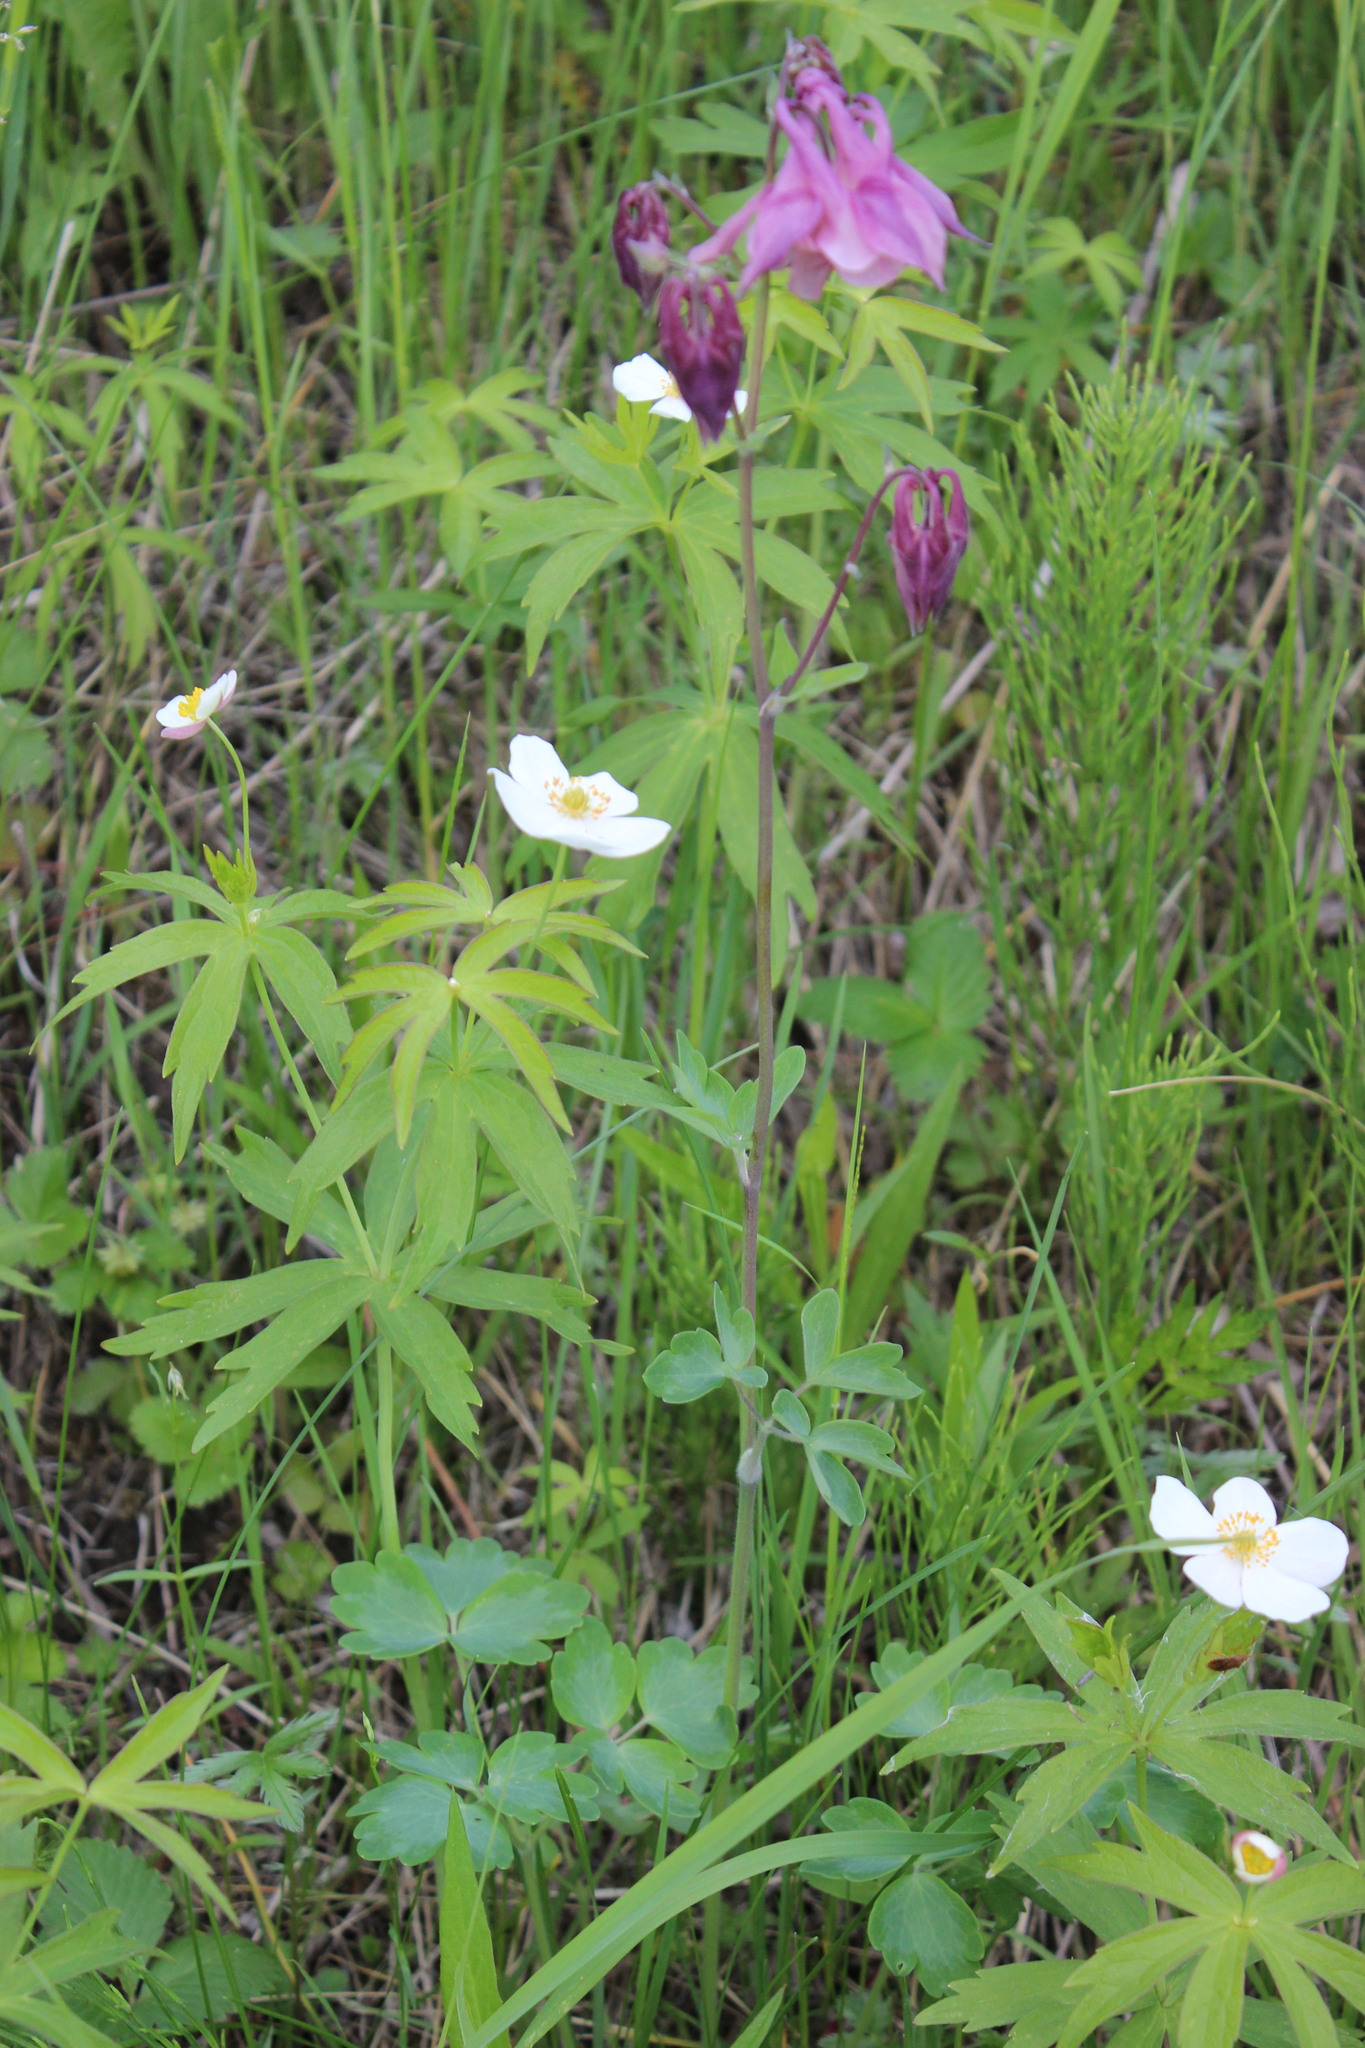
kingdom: Plantae
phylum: Tracheophyta
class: Magnoliopsida
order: Ranunculales
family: Ranunculaceae
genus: Aquilegia
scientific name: Aquilegia vulgaris
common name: Columbine
